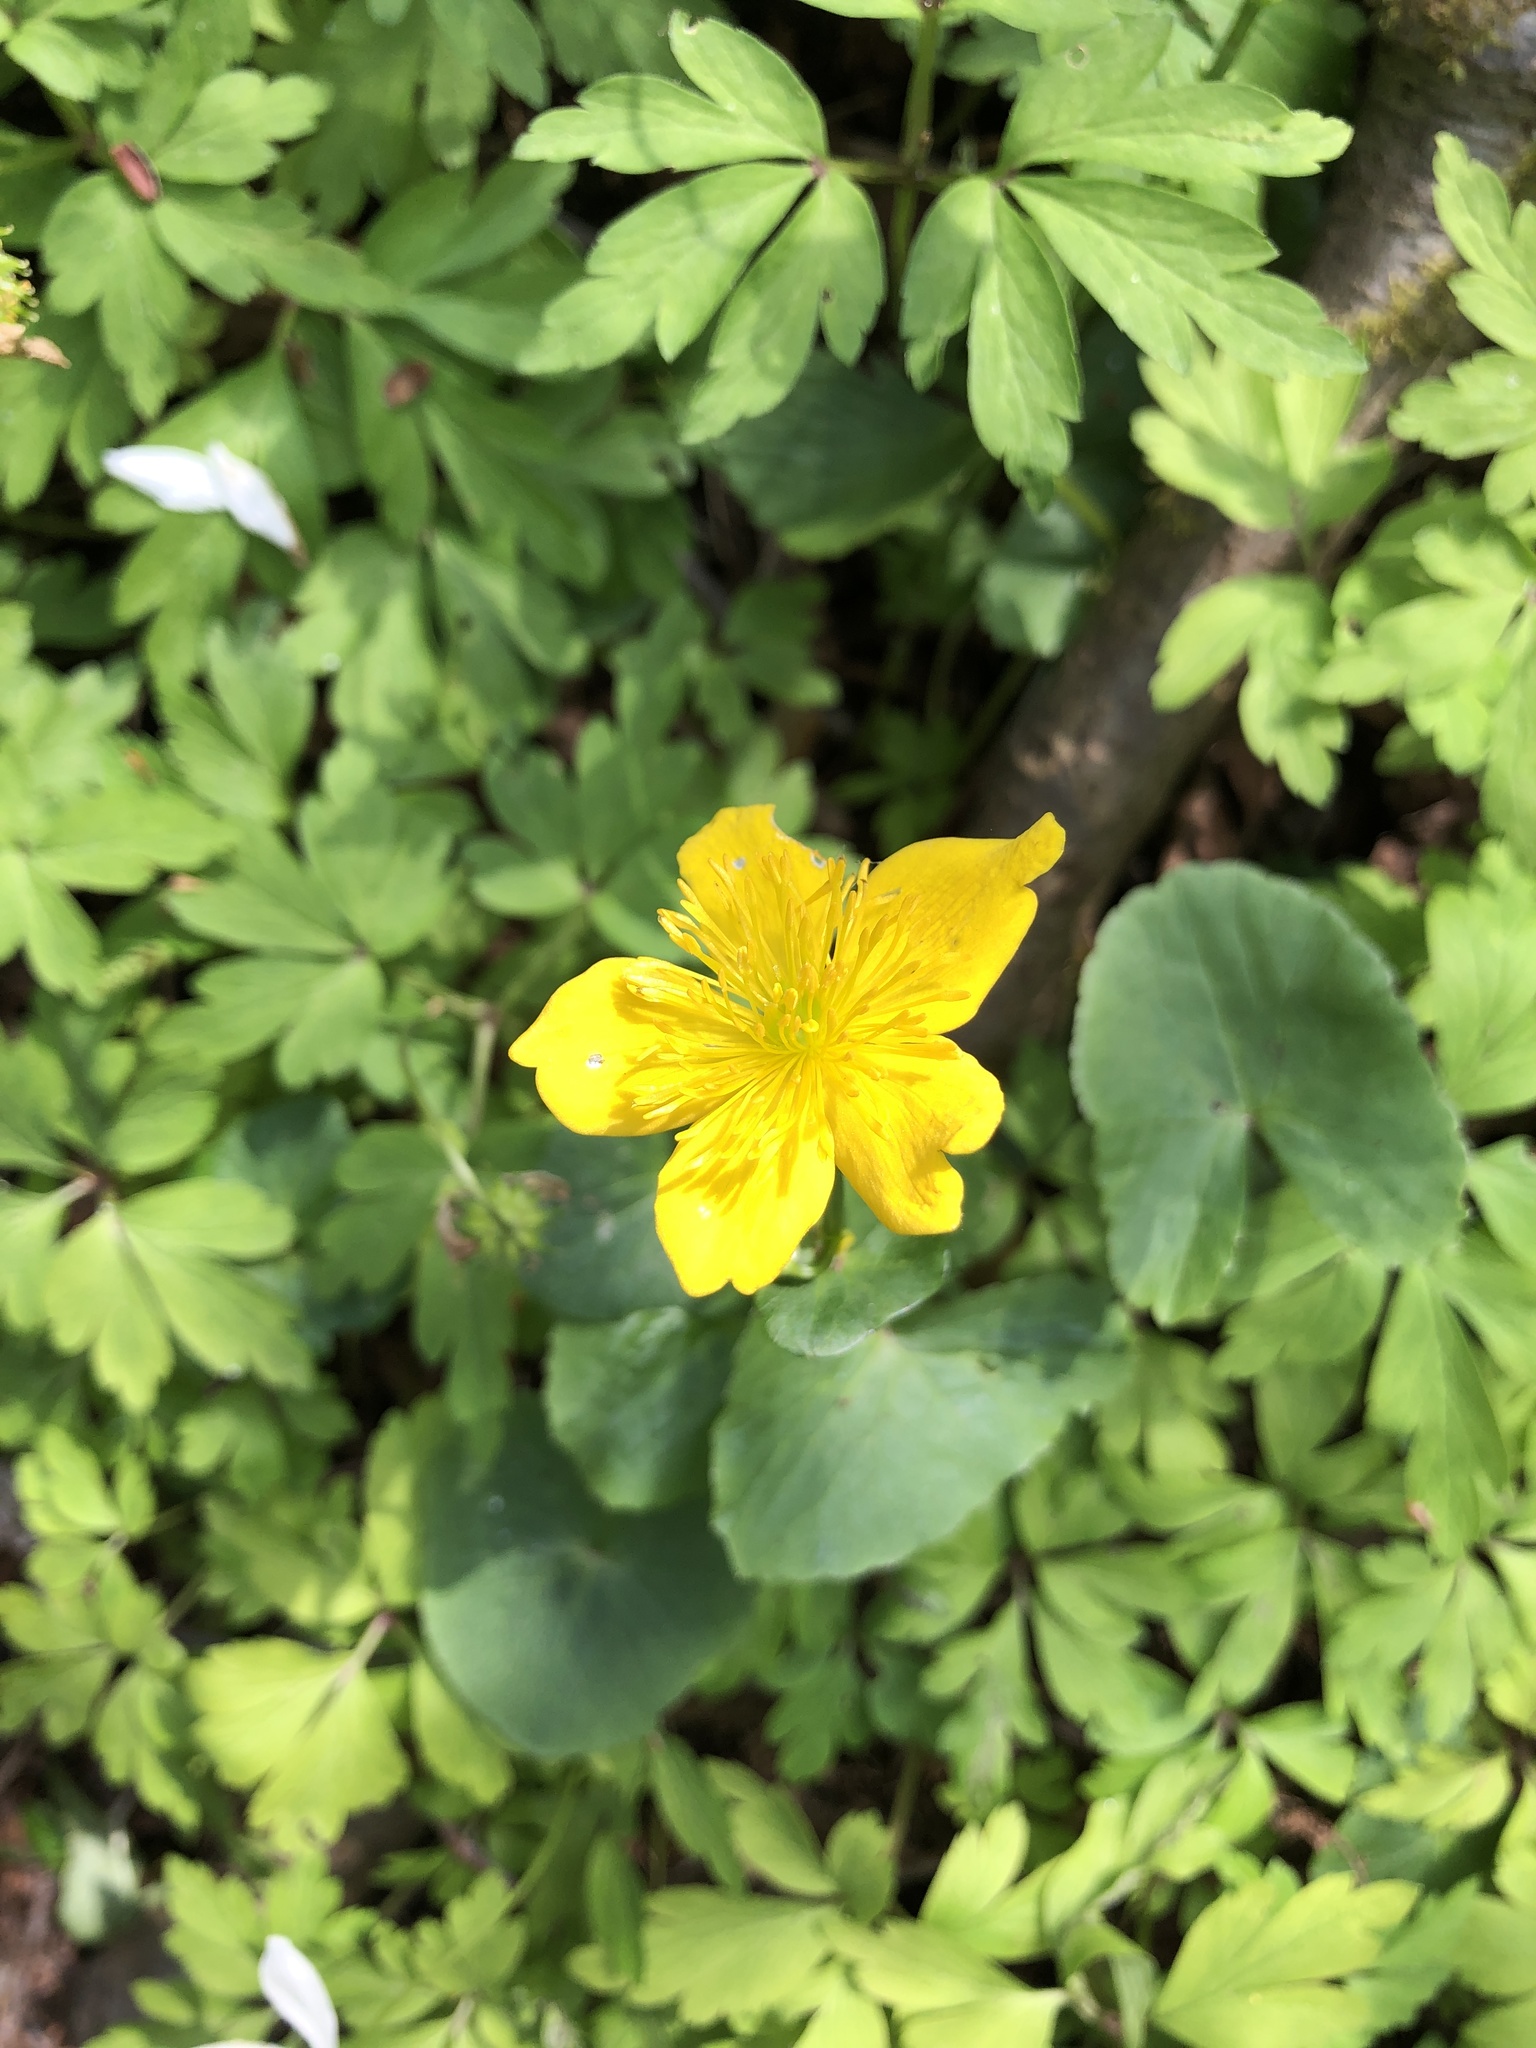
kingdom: Plantae
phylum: Tracheophyta
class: Magnoliopsida
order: Ranunculales
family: Ranunculaceae
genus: Caltha
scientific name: Caltha palustris
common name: Marsh marigold
